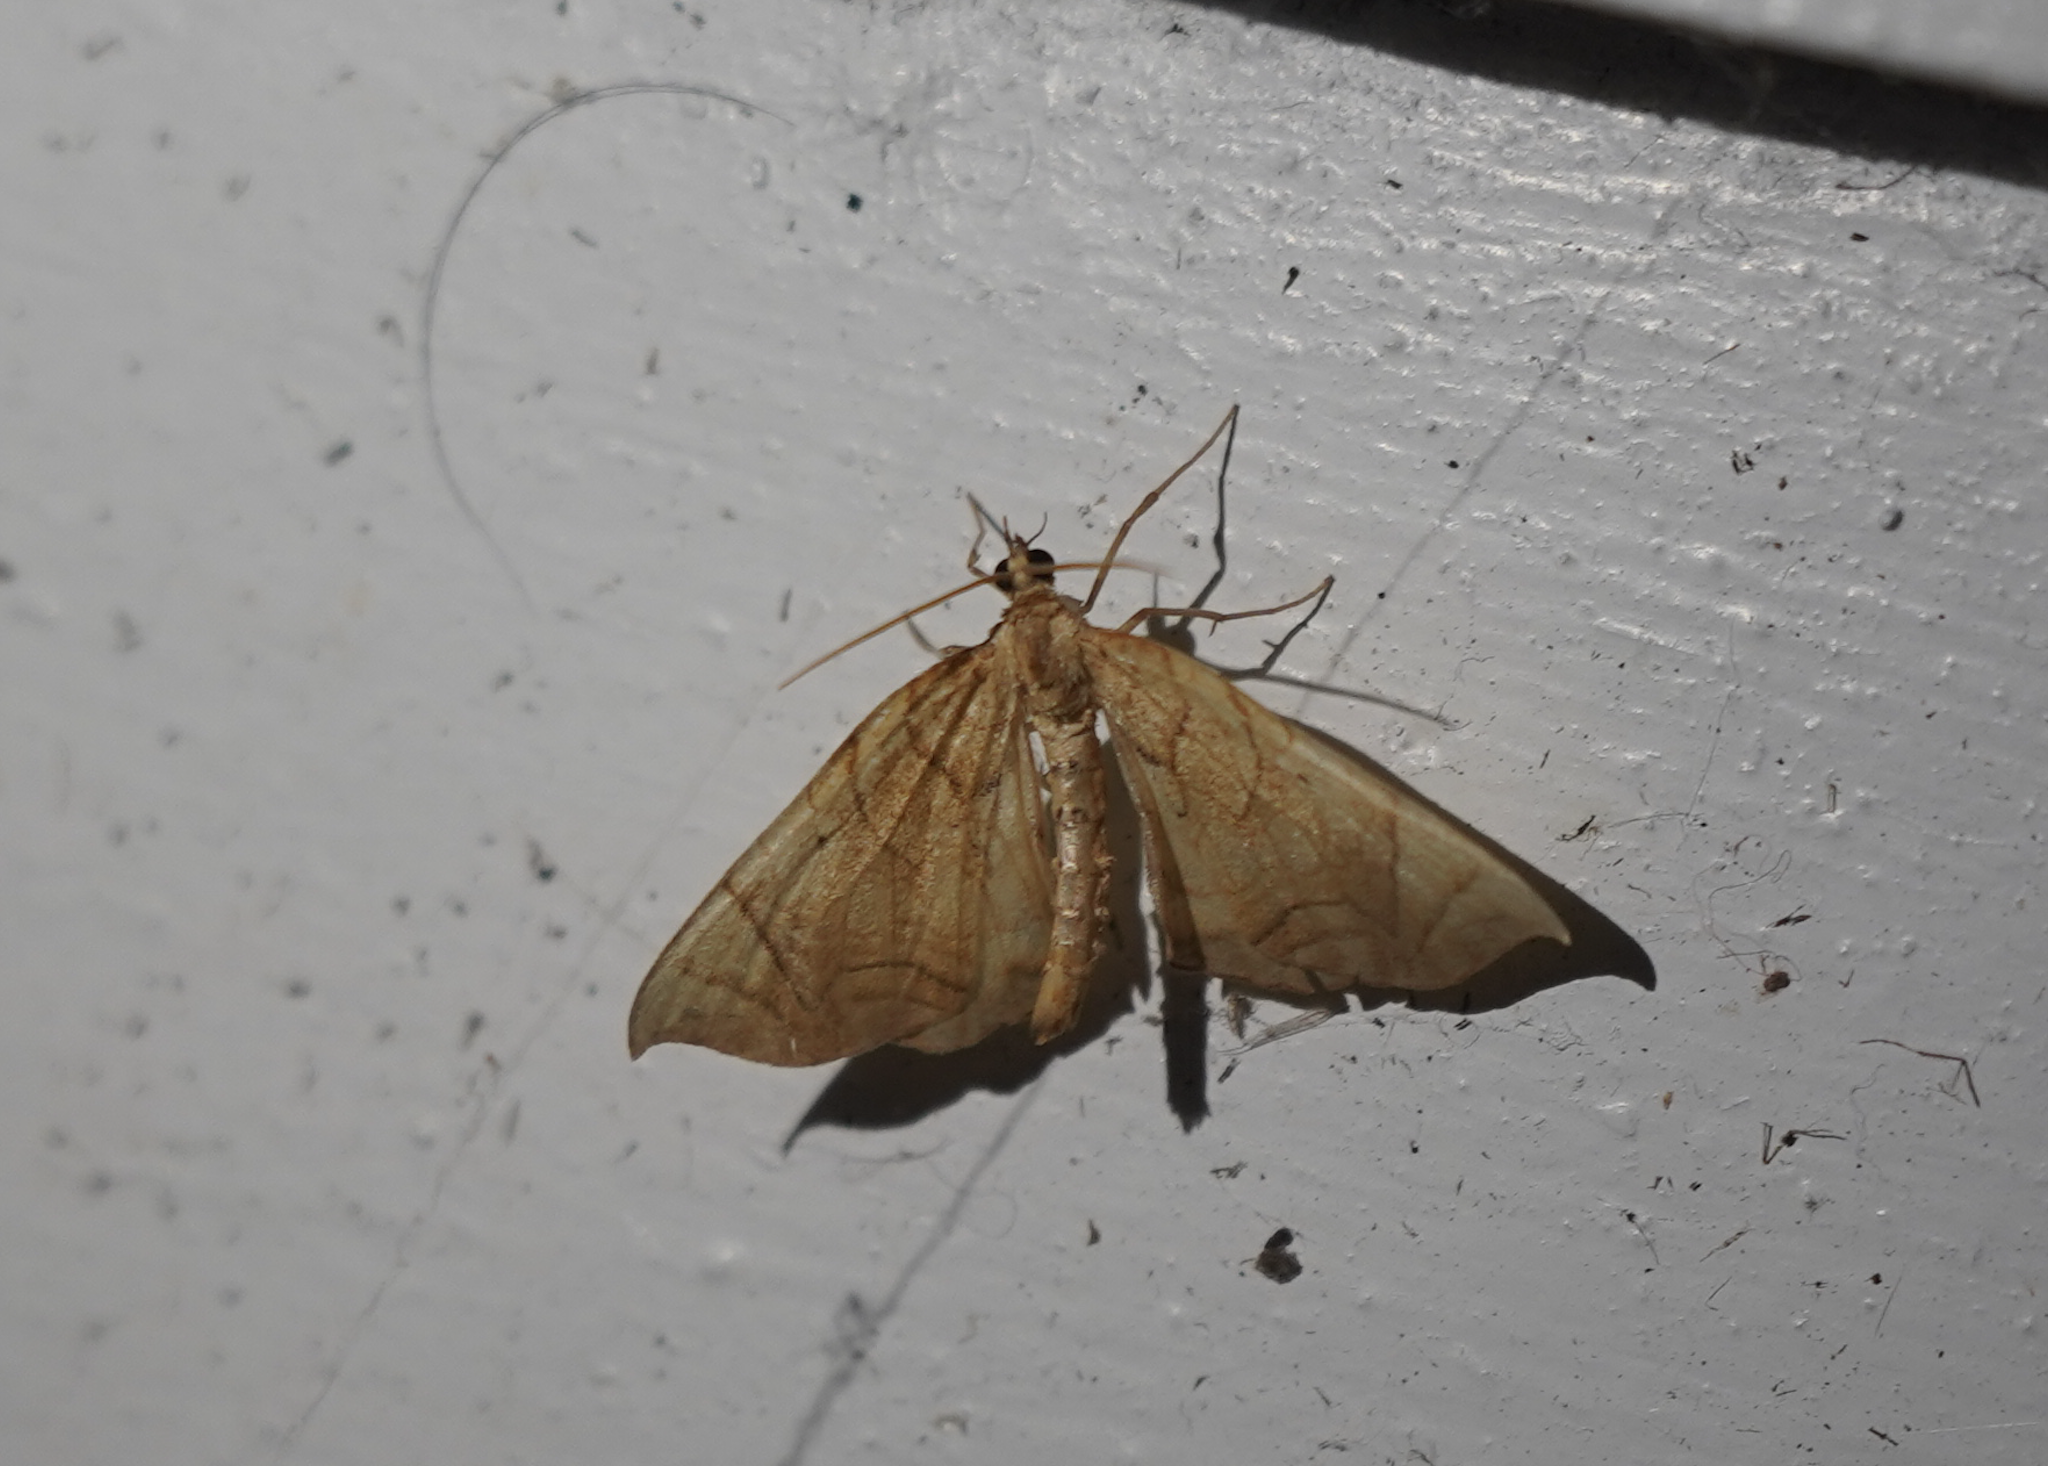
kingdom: Animalia
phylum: Arthropoda
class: Insecta
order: Lepidoptera
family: Geometridae
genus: Eulithis
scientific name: Eulithis
